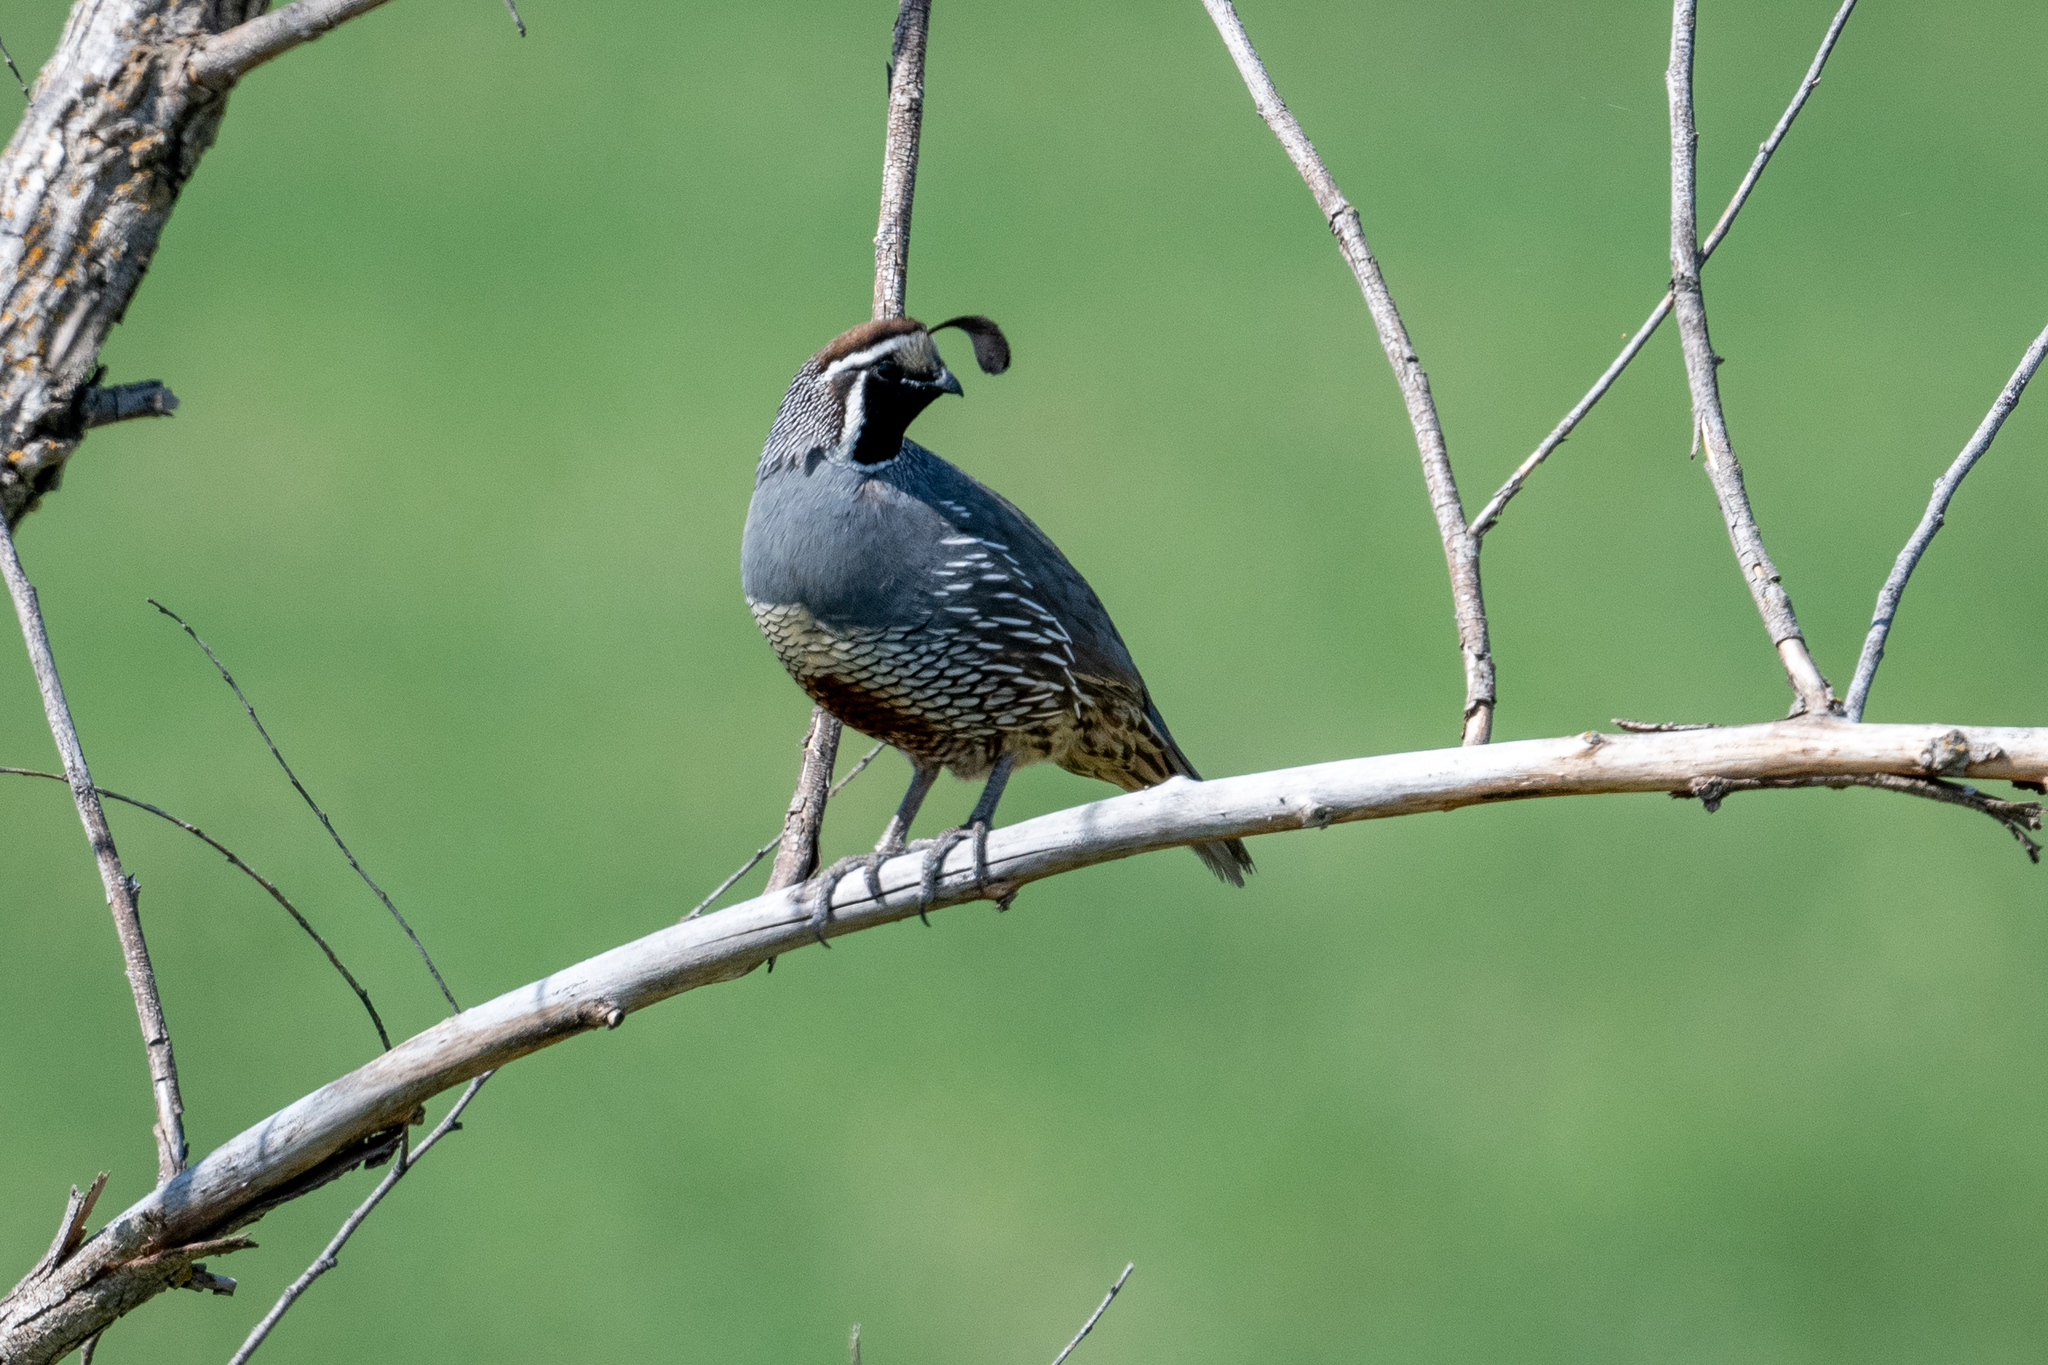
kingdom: Animalia
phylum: Chordata
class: Aves
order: Galliformes
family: Odontophoridae
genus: Callipepla
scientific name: Callipepla californica
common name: California quail
